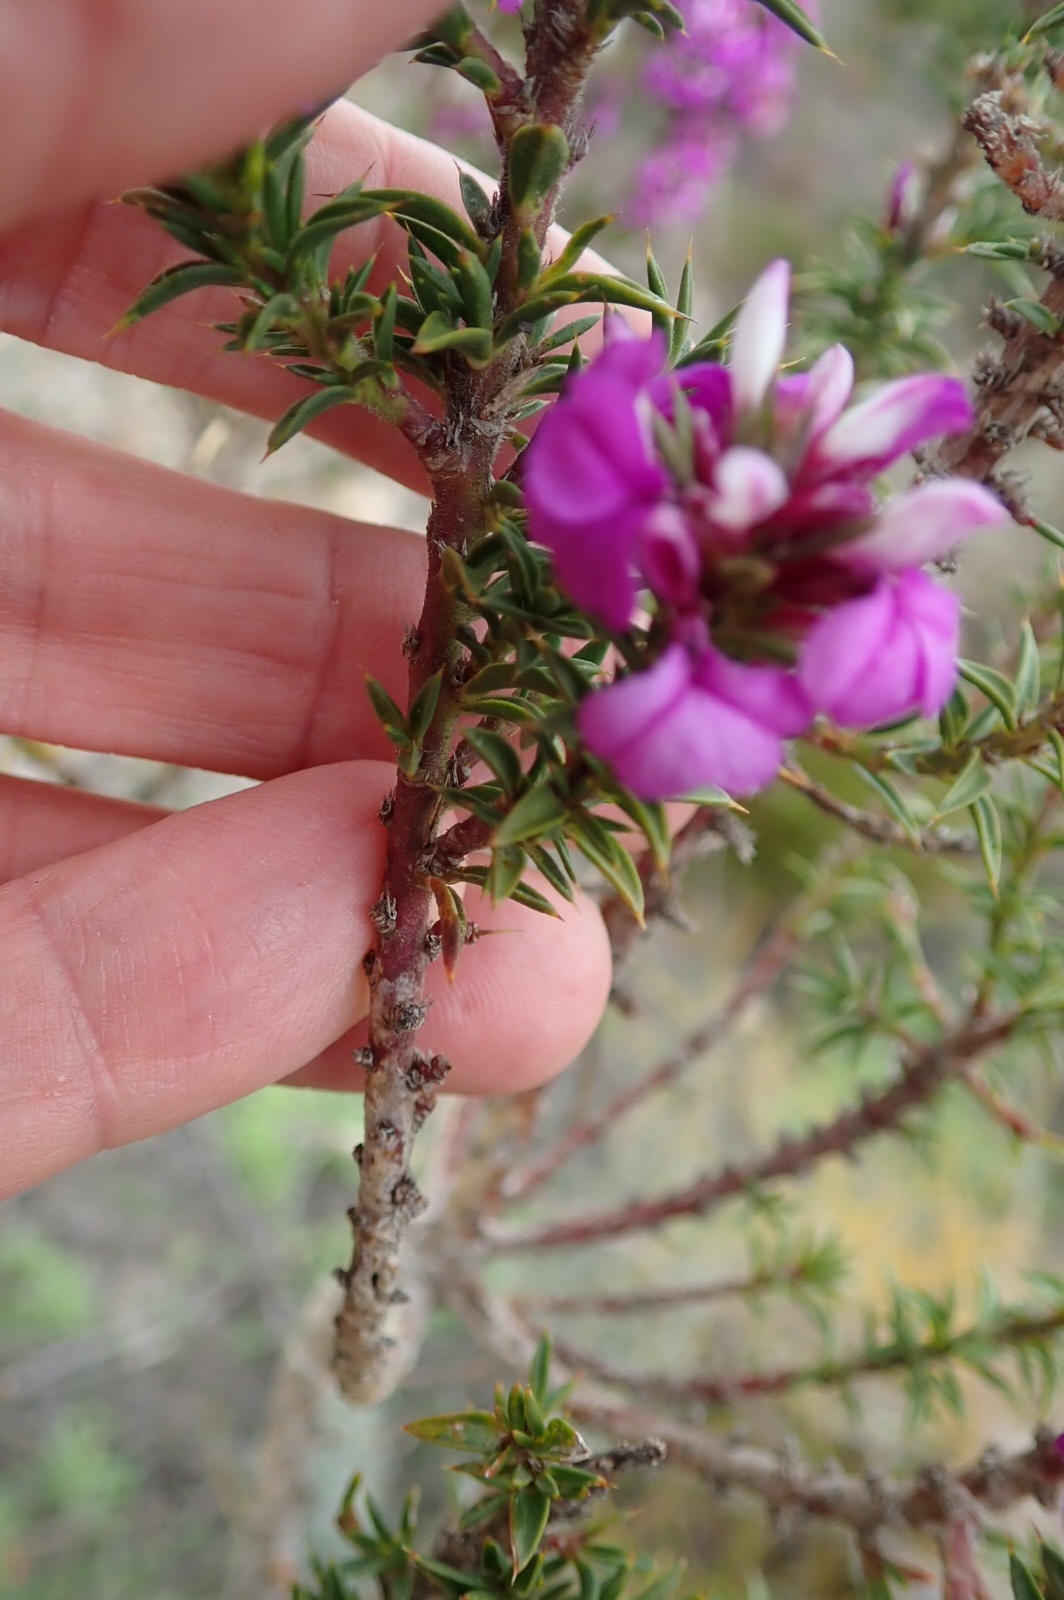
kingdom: Plantae
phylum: Tracheophyta
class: Magnoliopsida
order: Fabales
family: Polygalaceae
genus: Muraltia
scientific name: Muraltia heisteria
